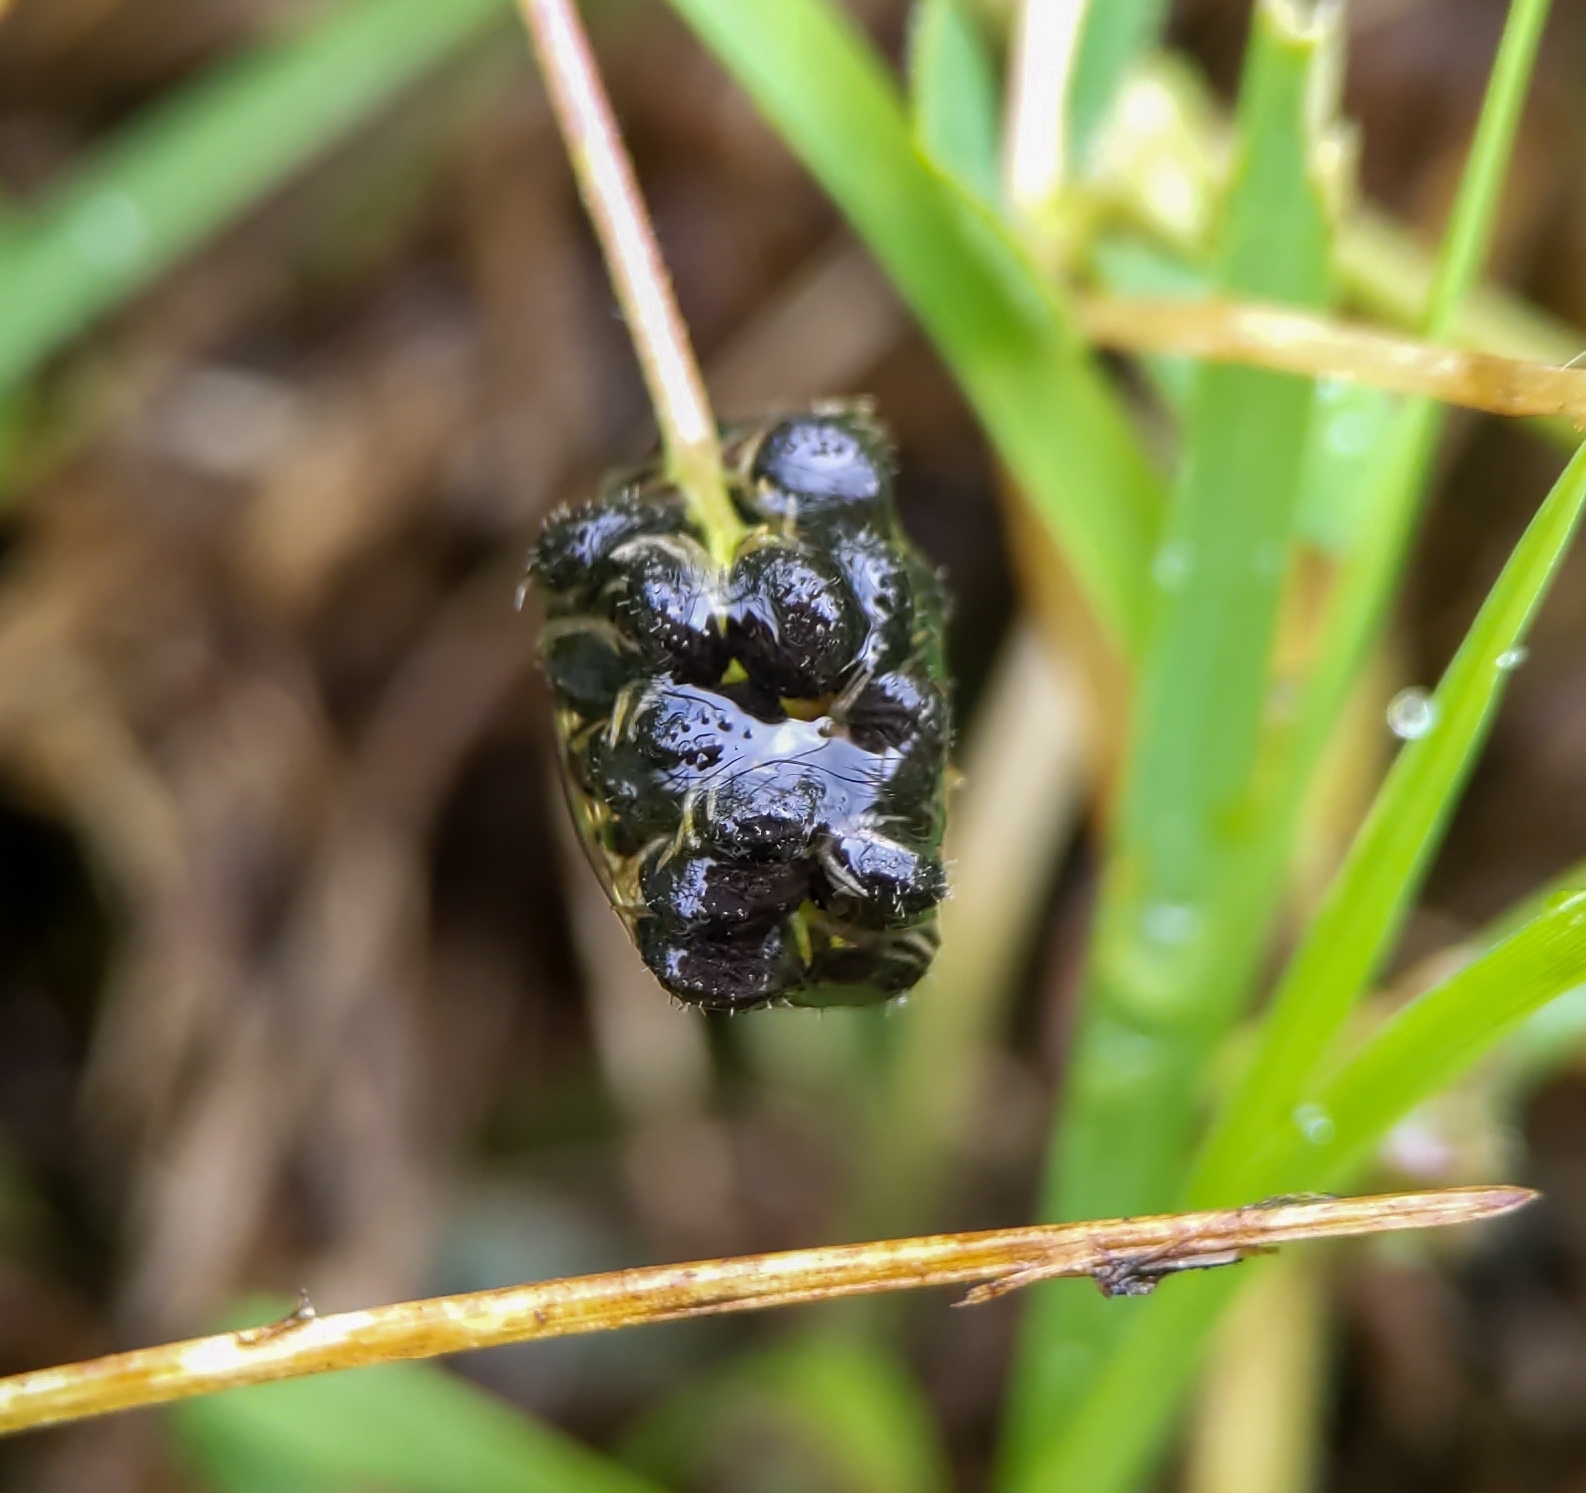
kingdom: Plantae
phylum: Tracheophyta
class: Magnoliopsida
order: Fabales
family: Fabaceae
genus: Medicago
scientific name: Medicago lupulina
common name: Black medick
